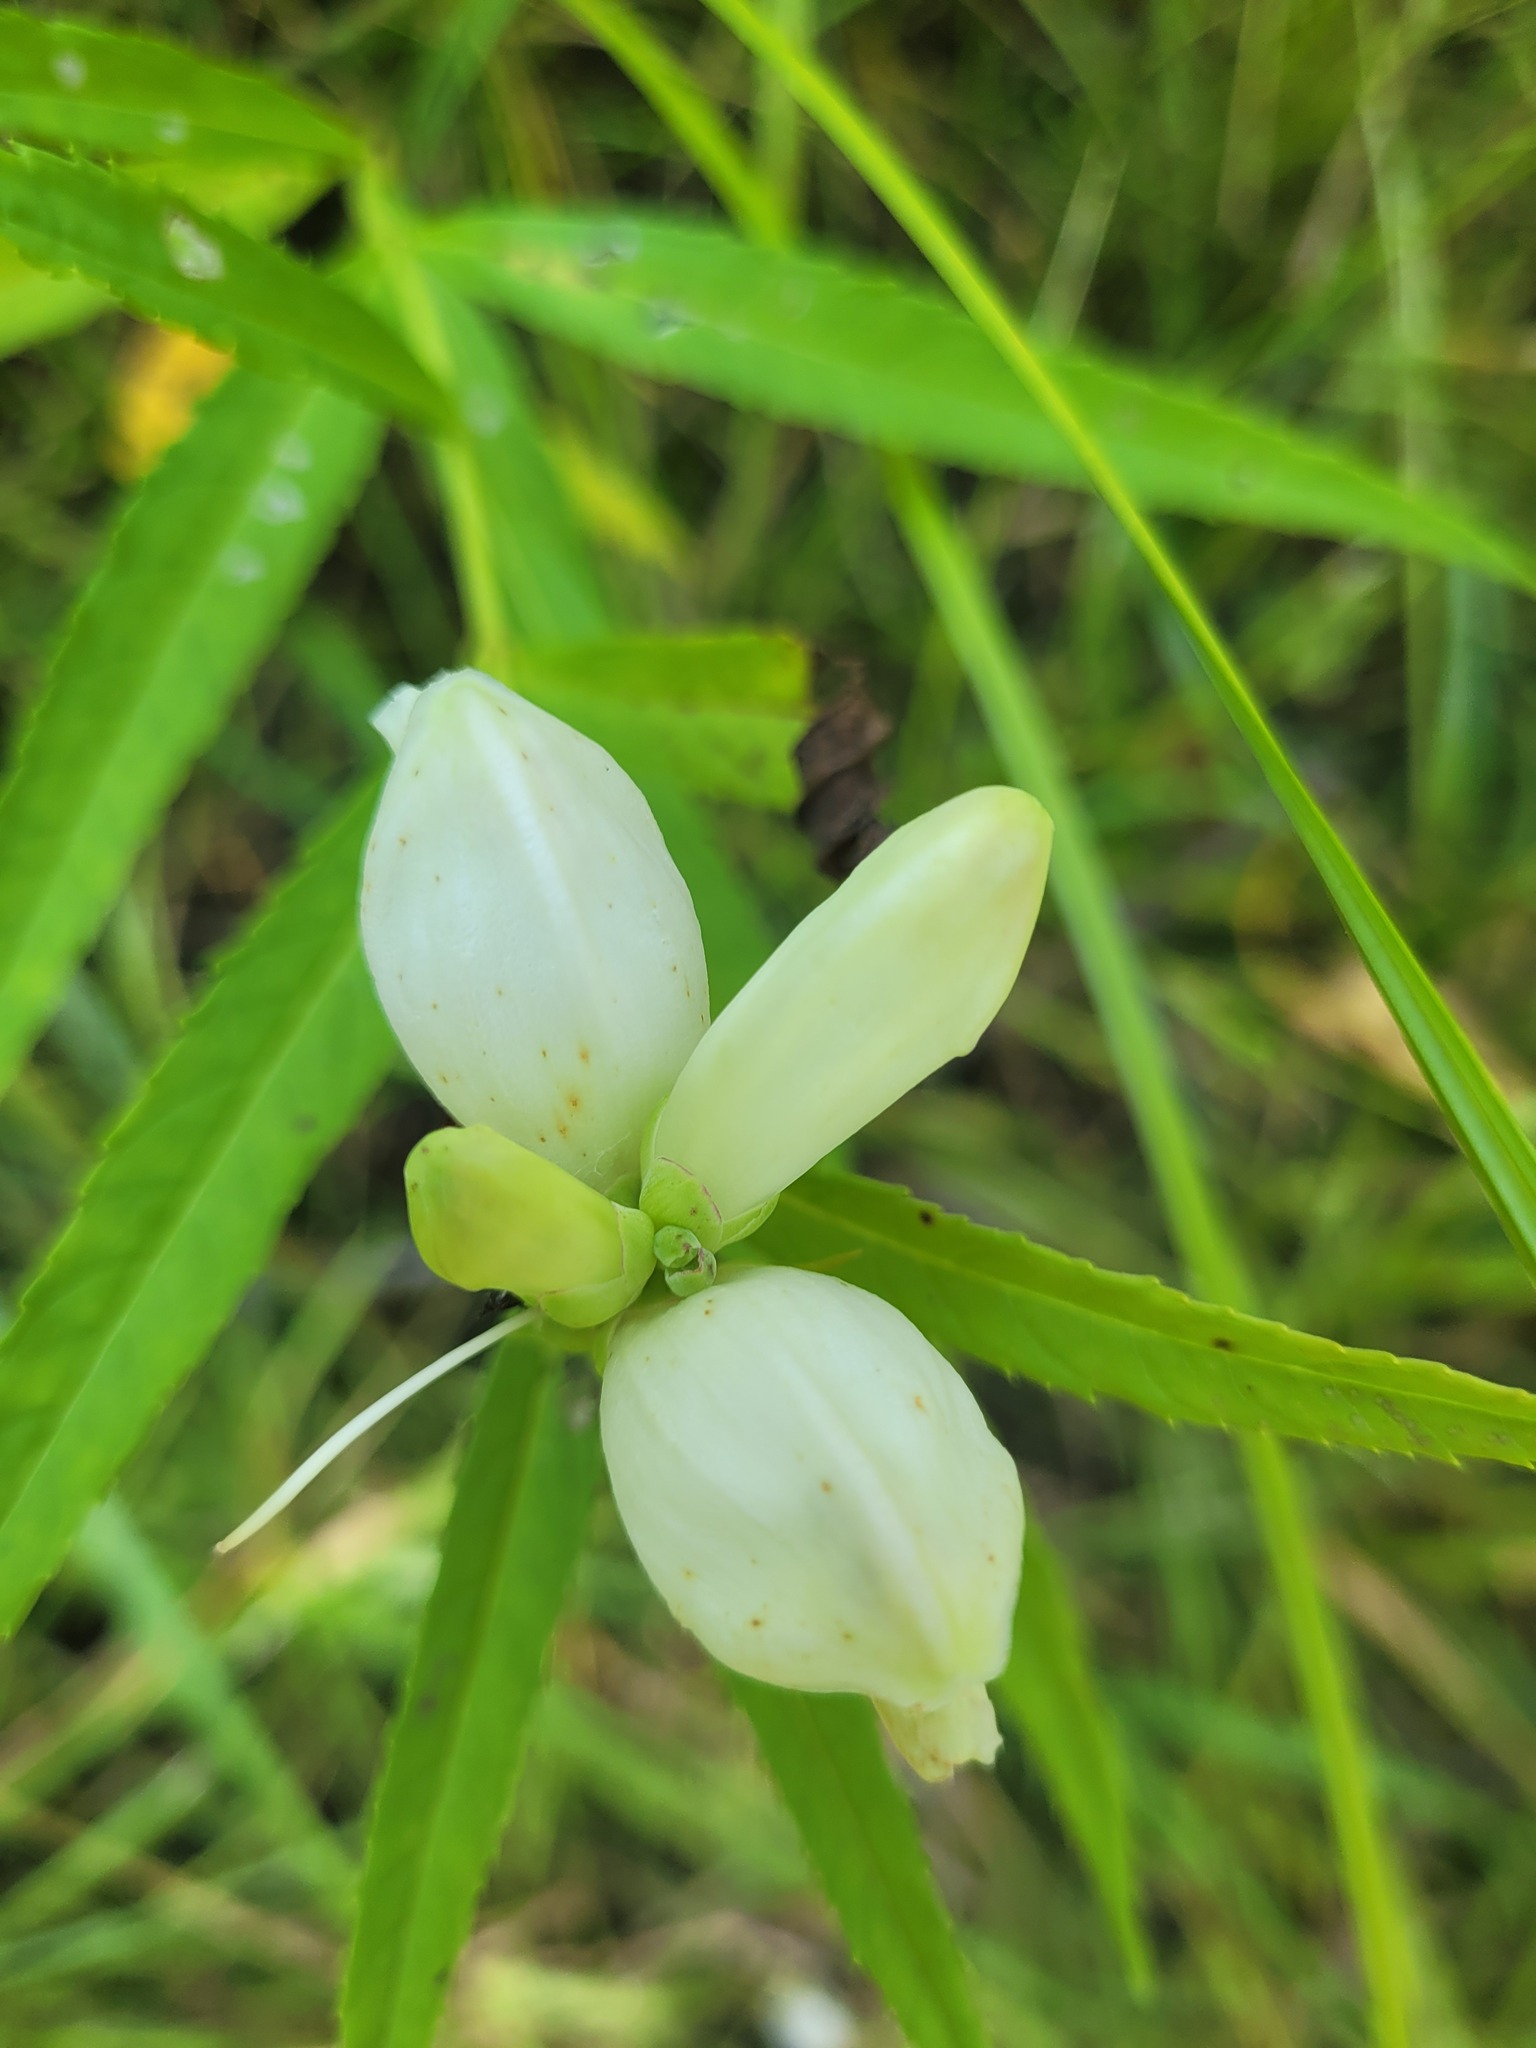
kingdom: Plantae
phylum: Tracheophyta
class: Magnoliopsida
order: Lamiales
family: Plantaginaceae
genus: Chelone
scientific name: Chelone glabra
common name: Snakehead
